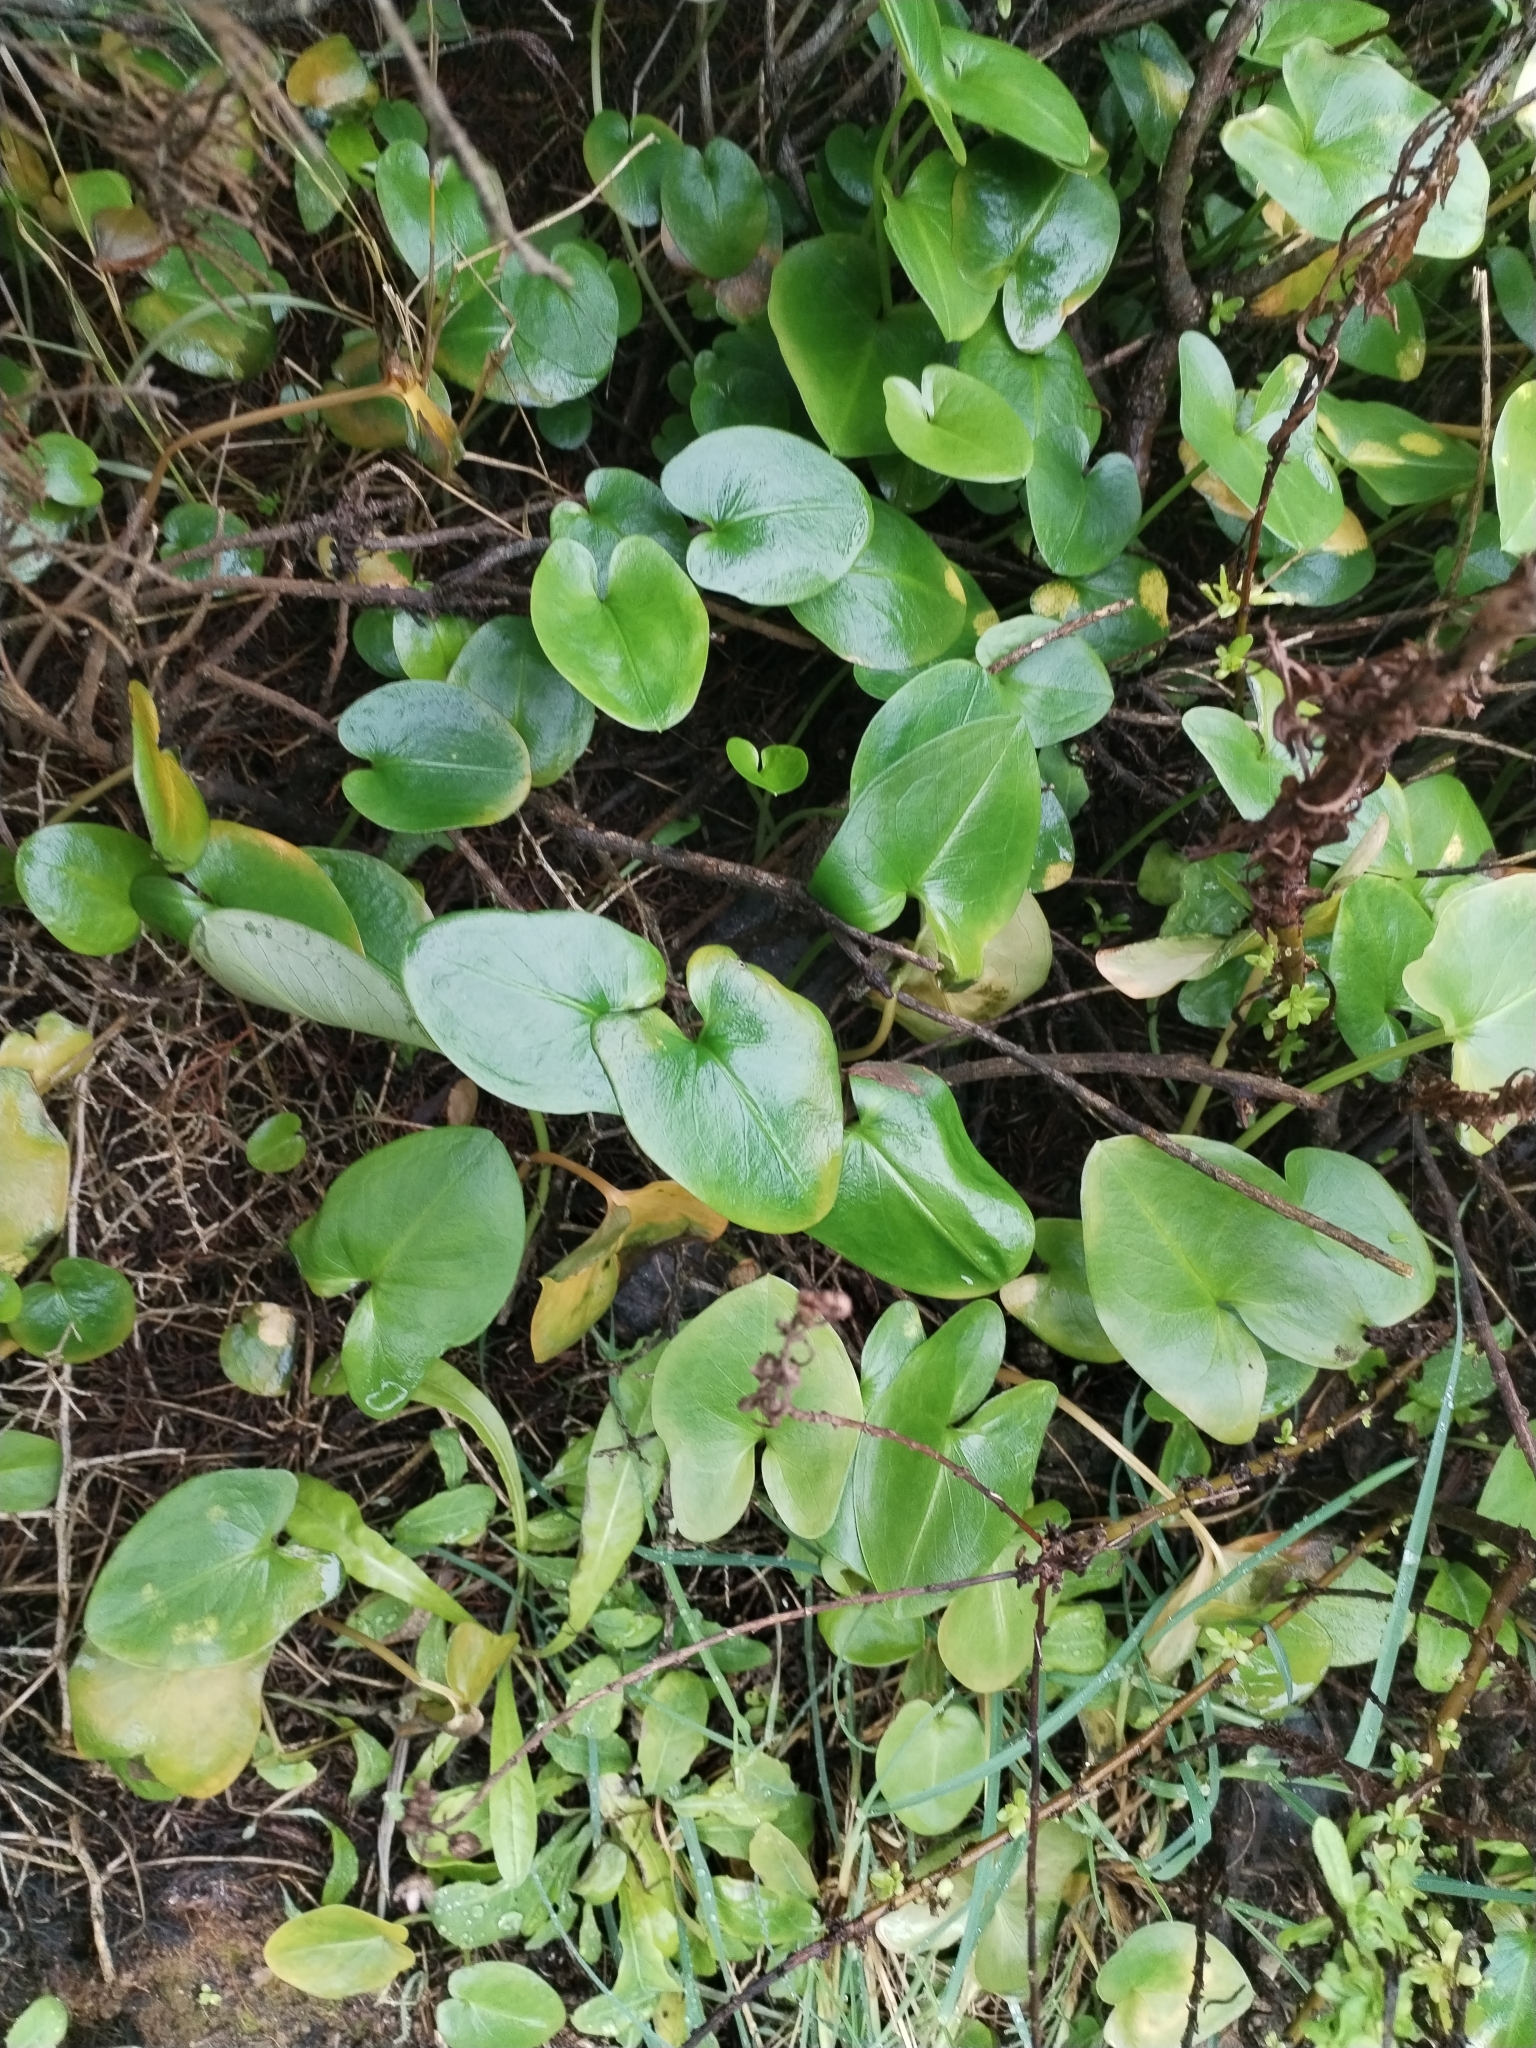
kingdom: Plantae
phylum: Tracheophyta
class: Liliopsida
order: Alismatales
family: Araceae
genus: Arisarum
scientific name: Arisarum simorrhinum
